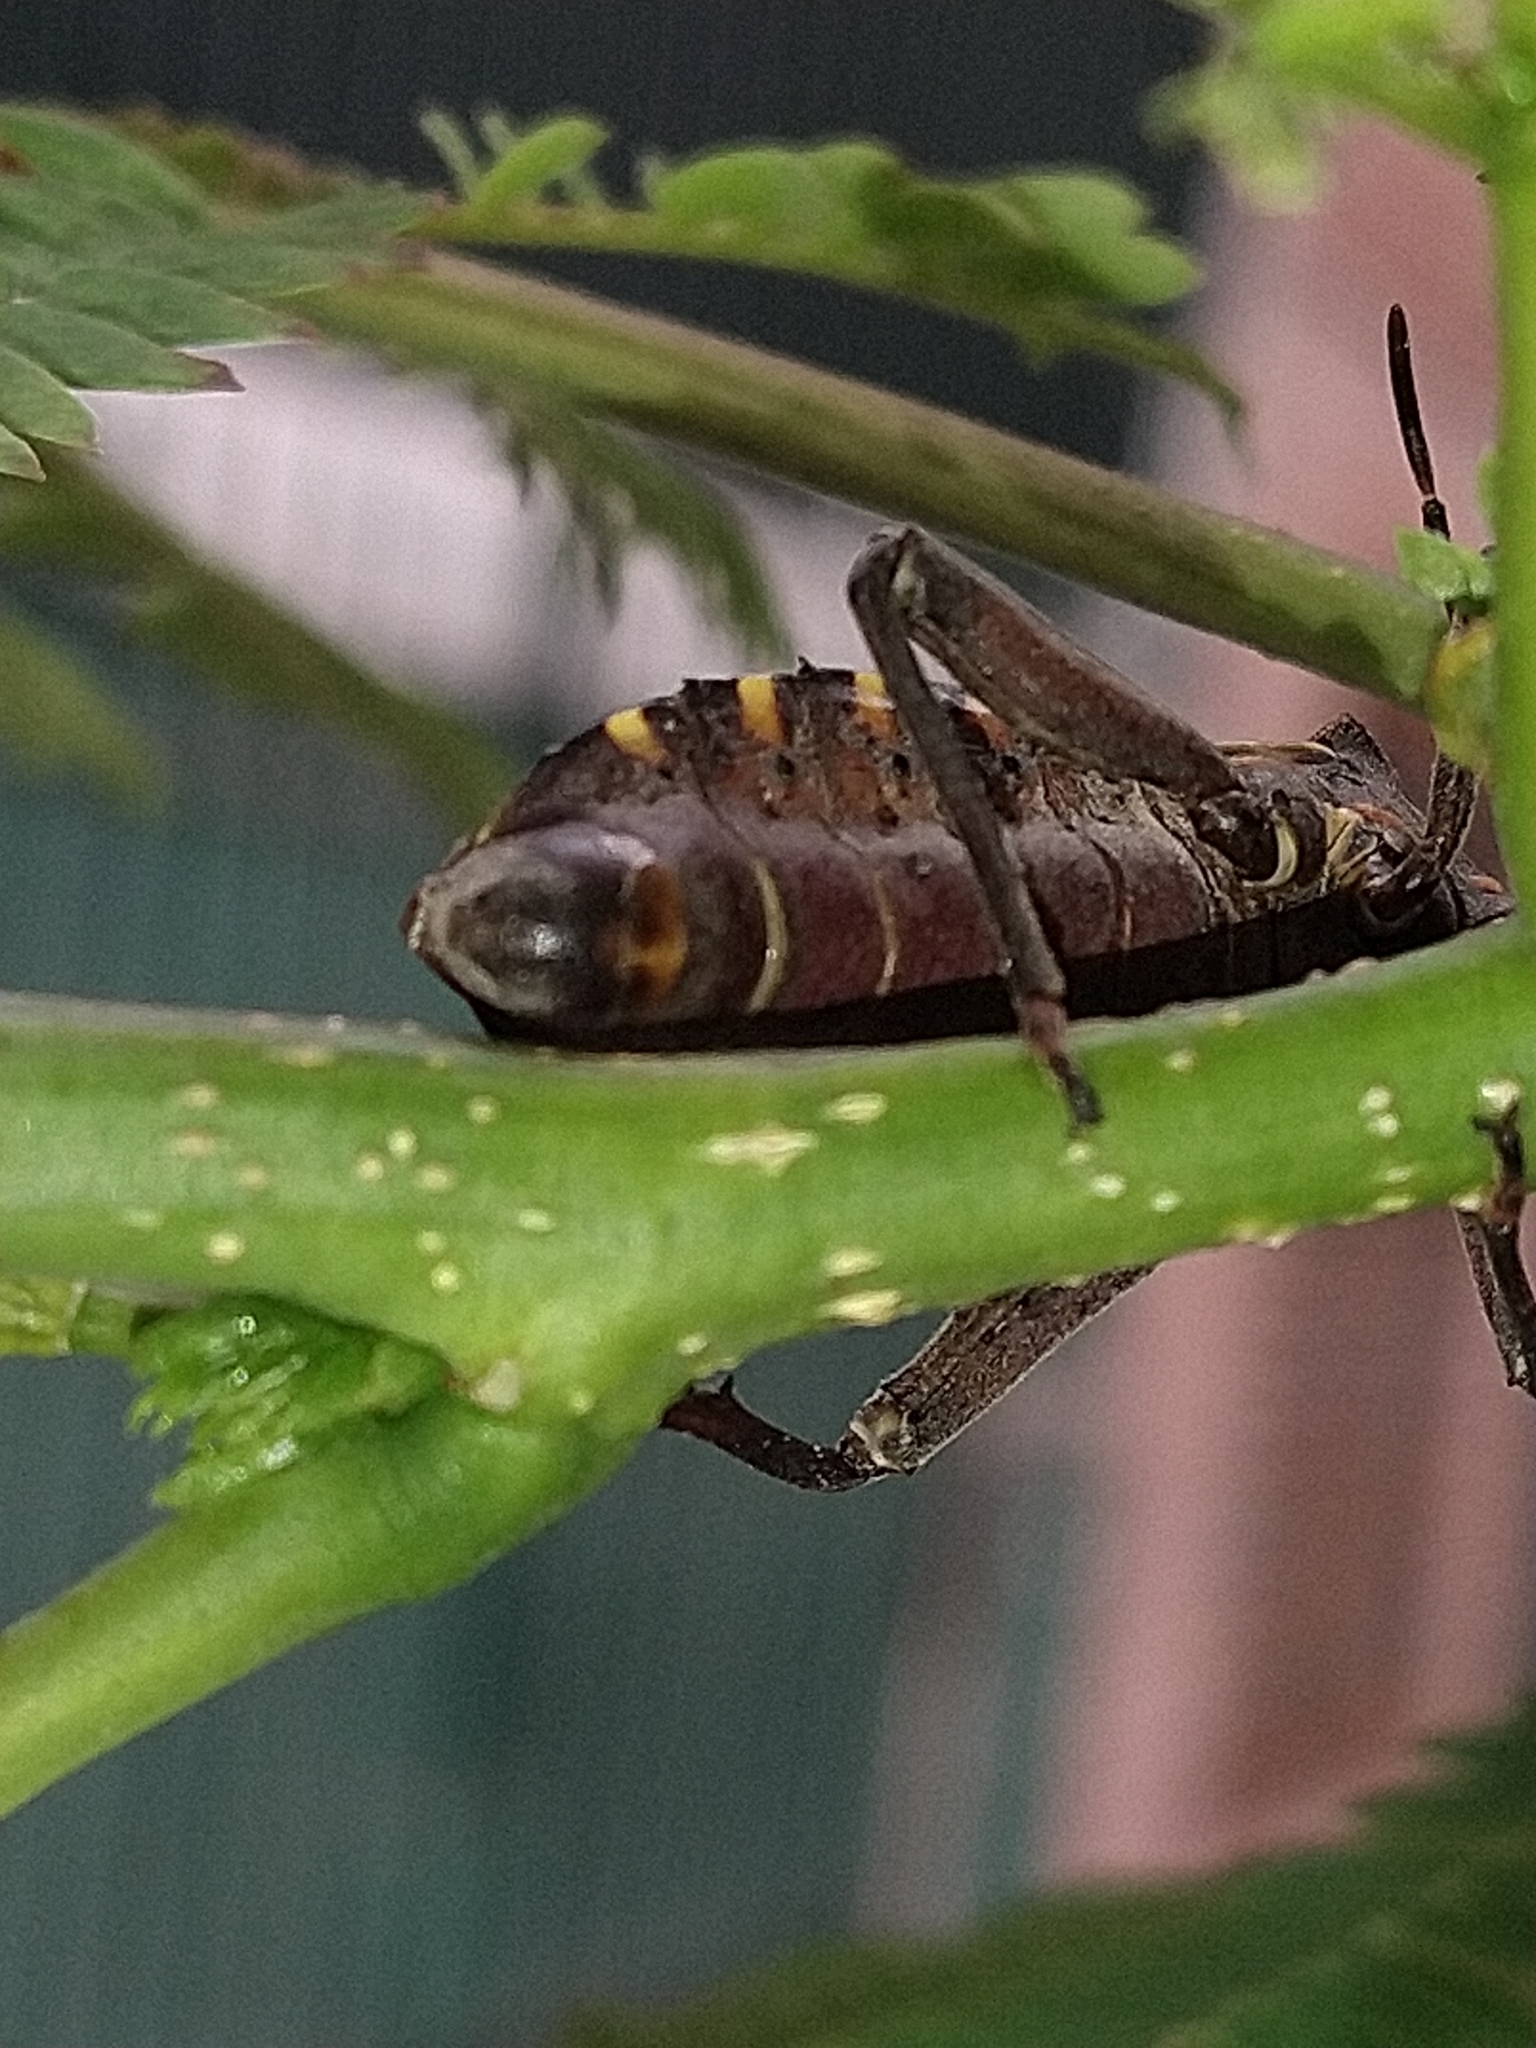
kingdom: Animalia
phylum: Arthropoda
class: Insecta
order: Hemiptera
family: Coreidae
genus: Pachylis
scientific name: Pachylis argentinus
